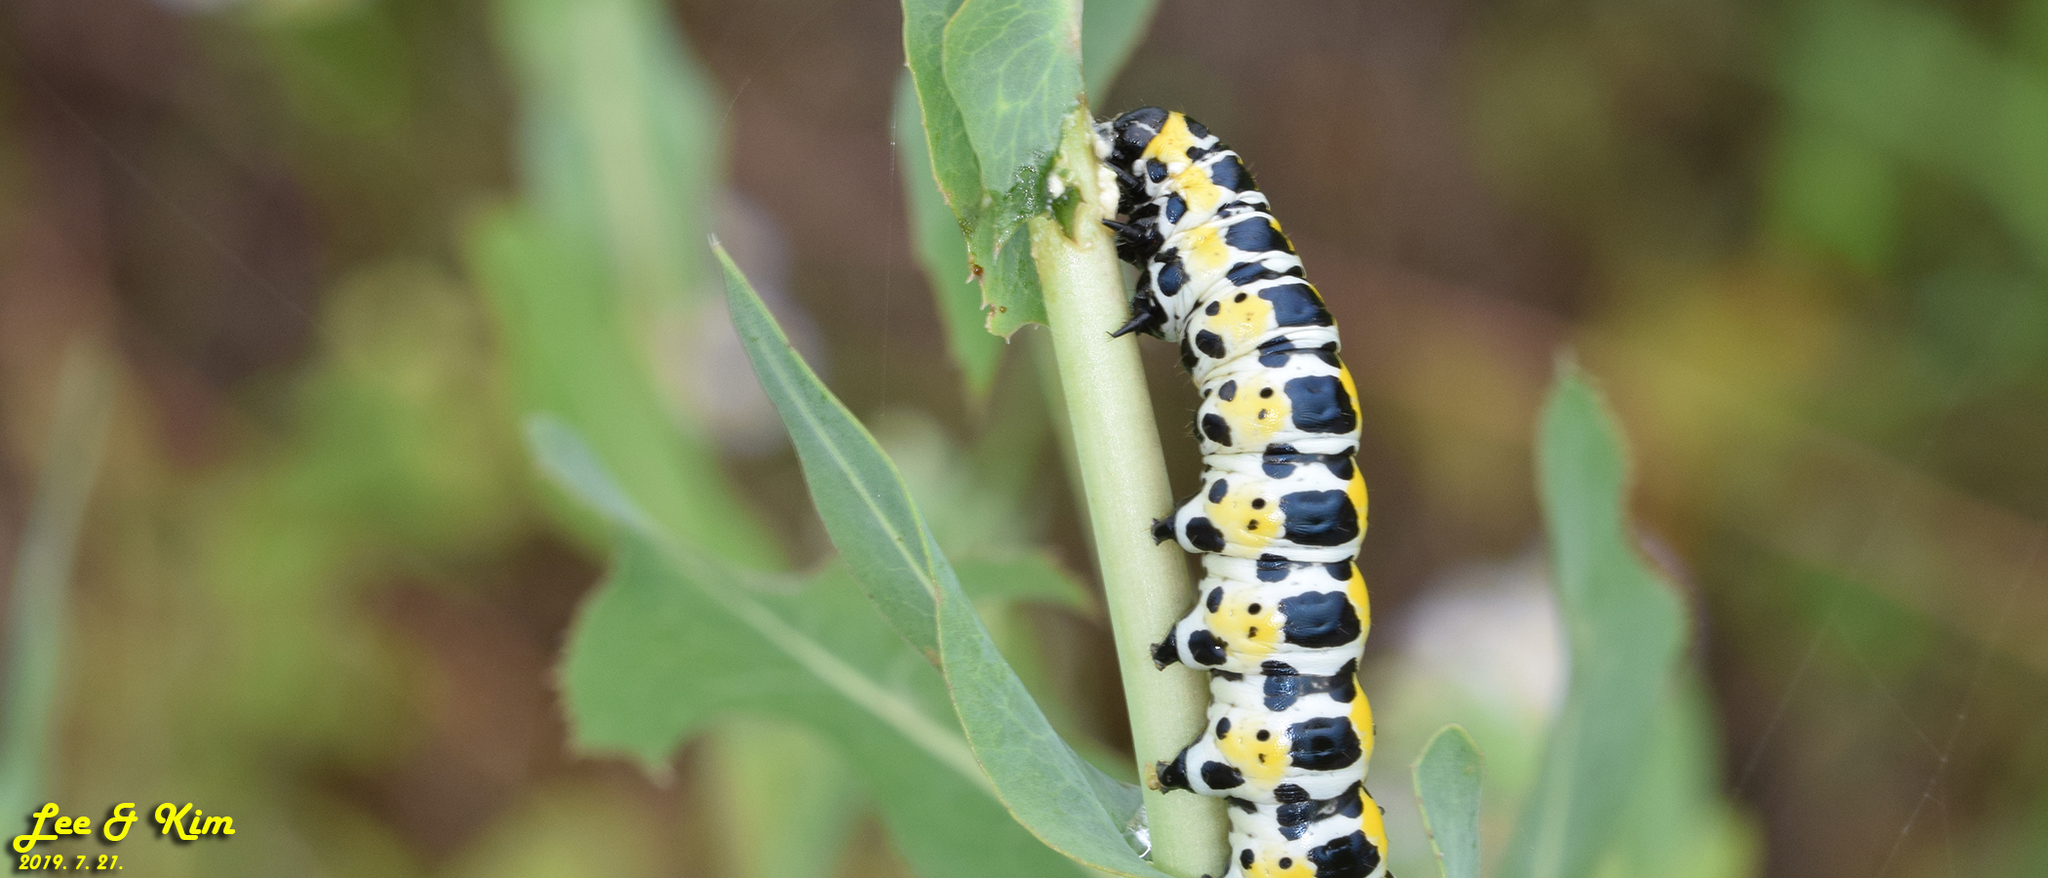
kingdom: Animalia
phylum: Arthropoda
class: Insecta
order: Lepidoptera
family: Noctuidae
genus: Cucullia
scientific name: Cucullia pustulata
